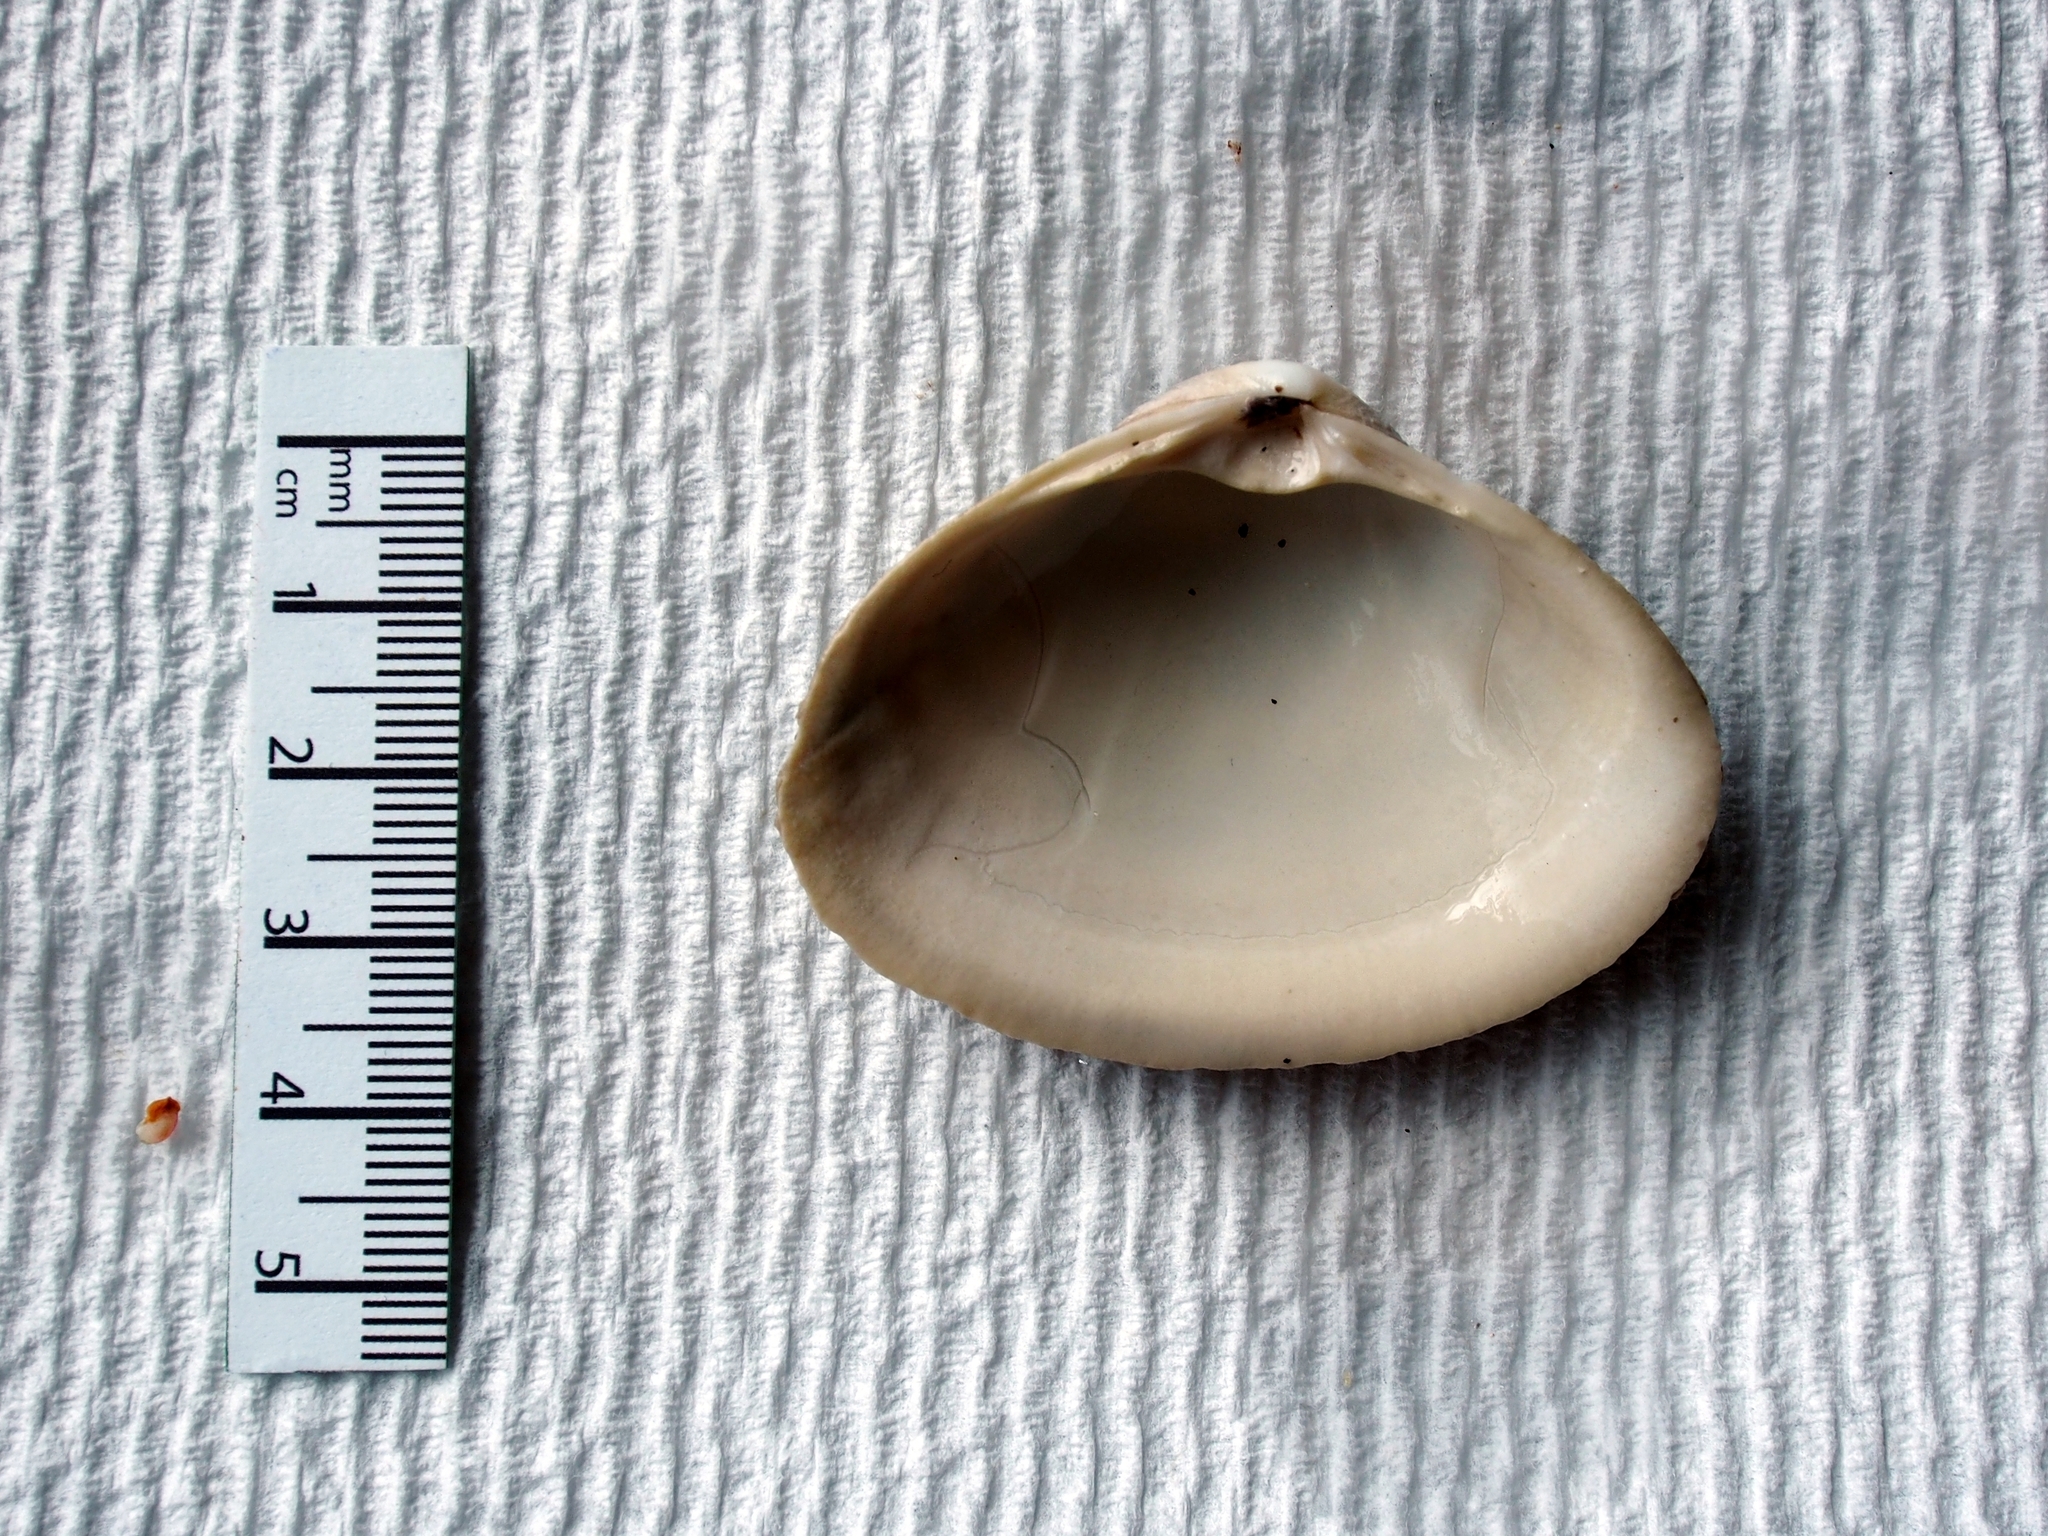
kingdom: Animalia
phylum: Mollusca
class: Bivalvia
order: Venerida
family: Mactridae
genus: Spisula
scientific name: Spisula solidissima
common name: Atlantic surf clam
